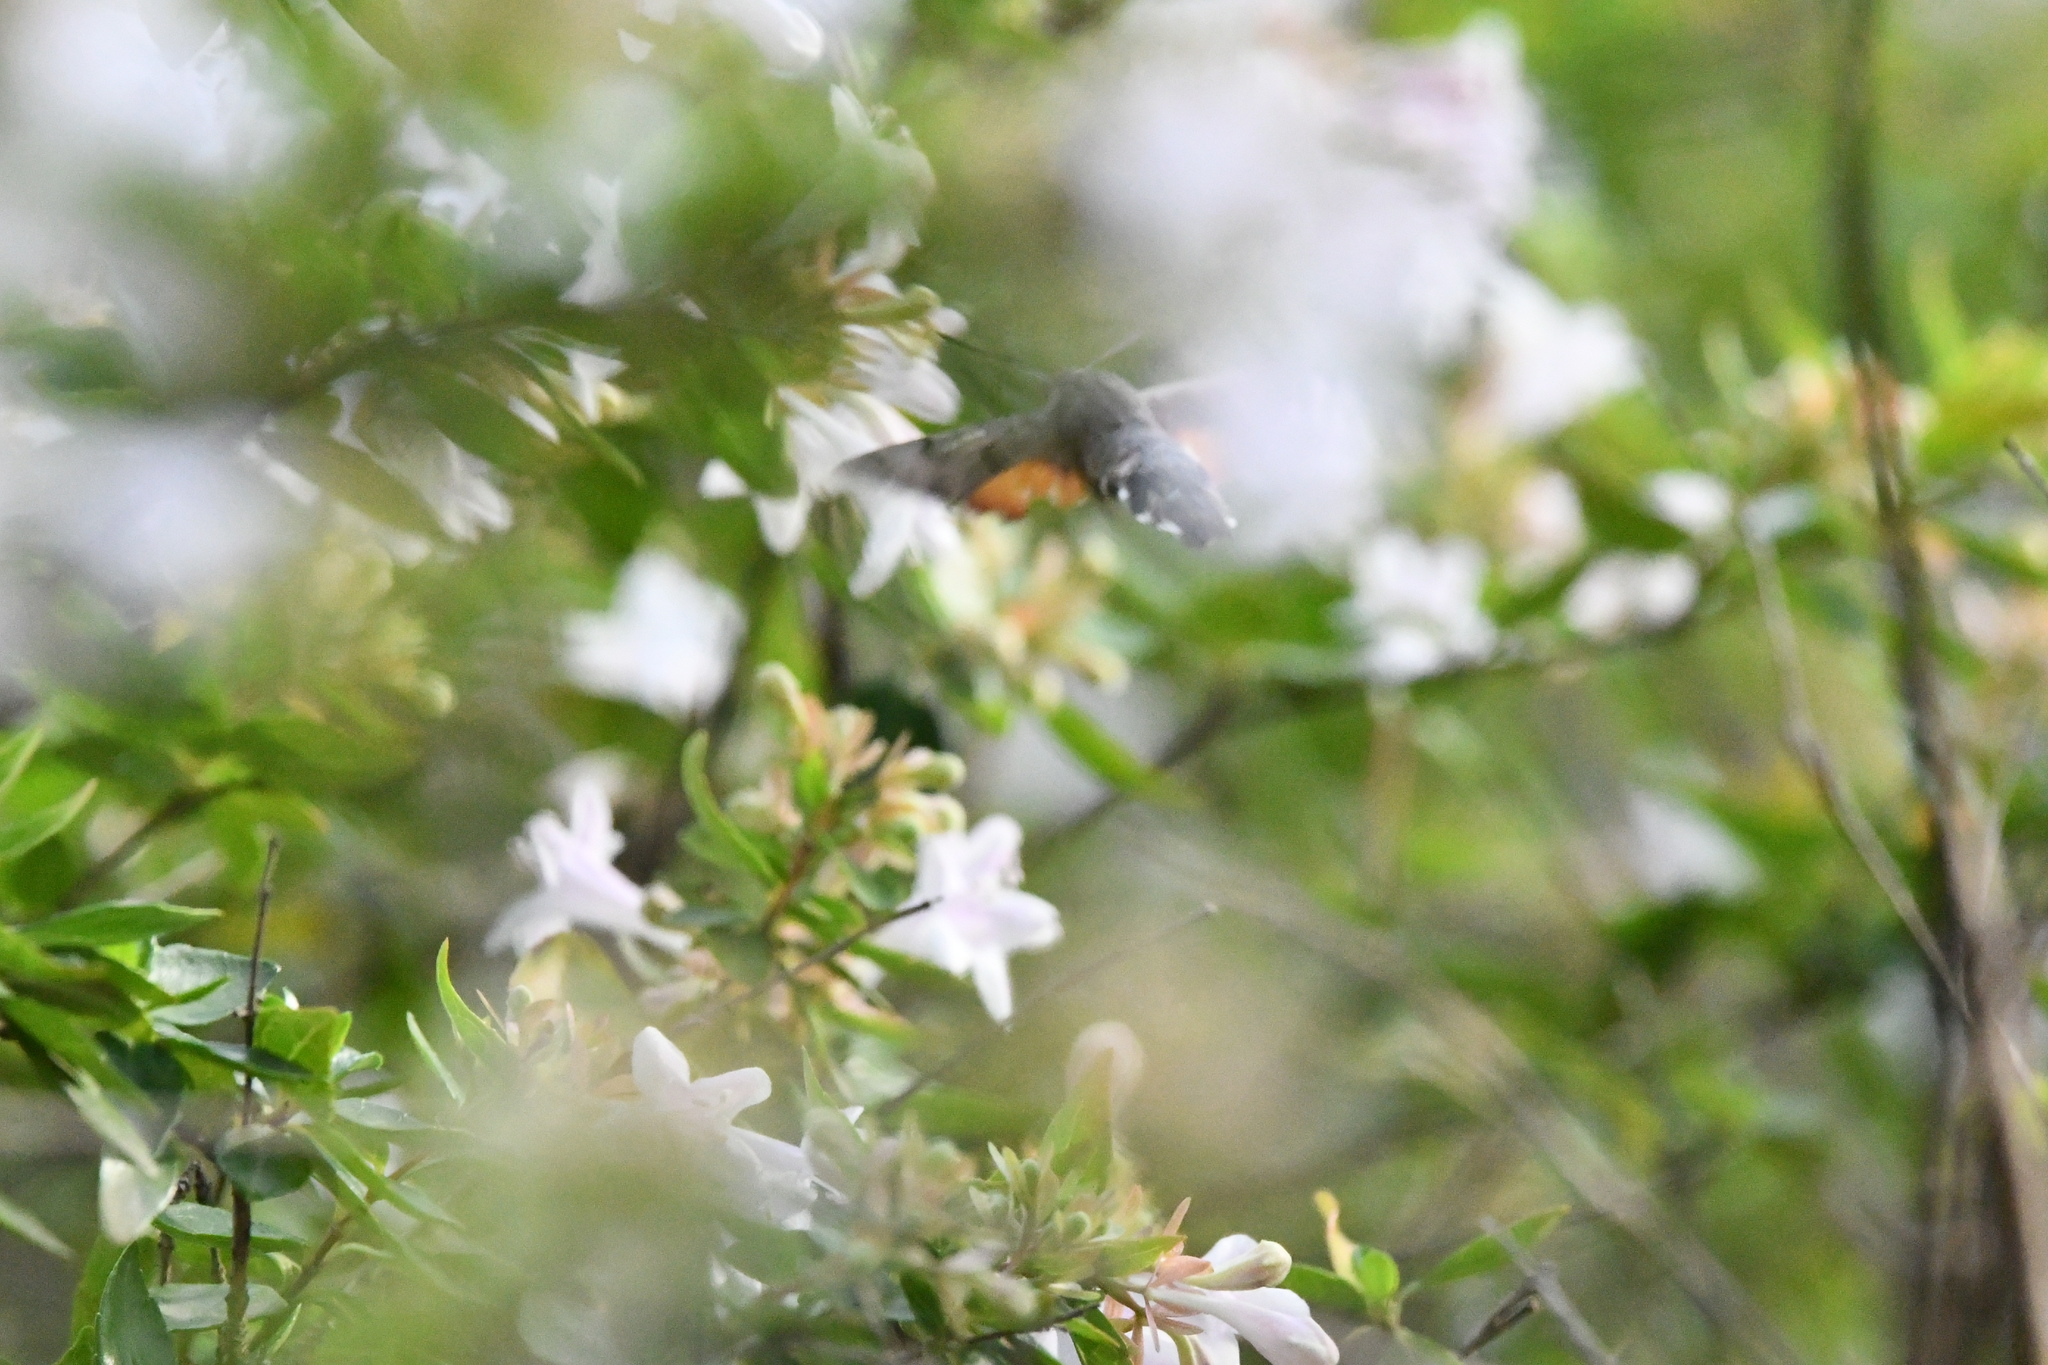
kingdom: Animalia
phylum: Arthropoda
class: Insecta
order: Lepidoptera
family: Sphingidae
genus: Macroglossum
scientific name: Macroglossum stellatarum
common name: Humming-bird hawk-moth
